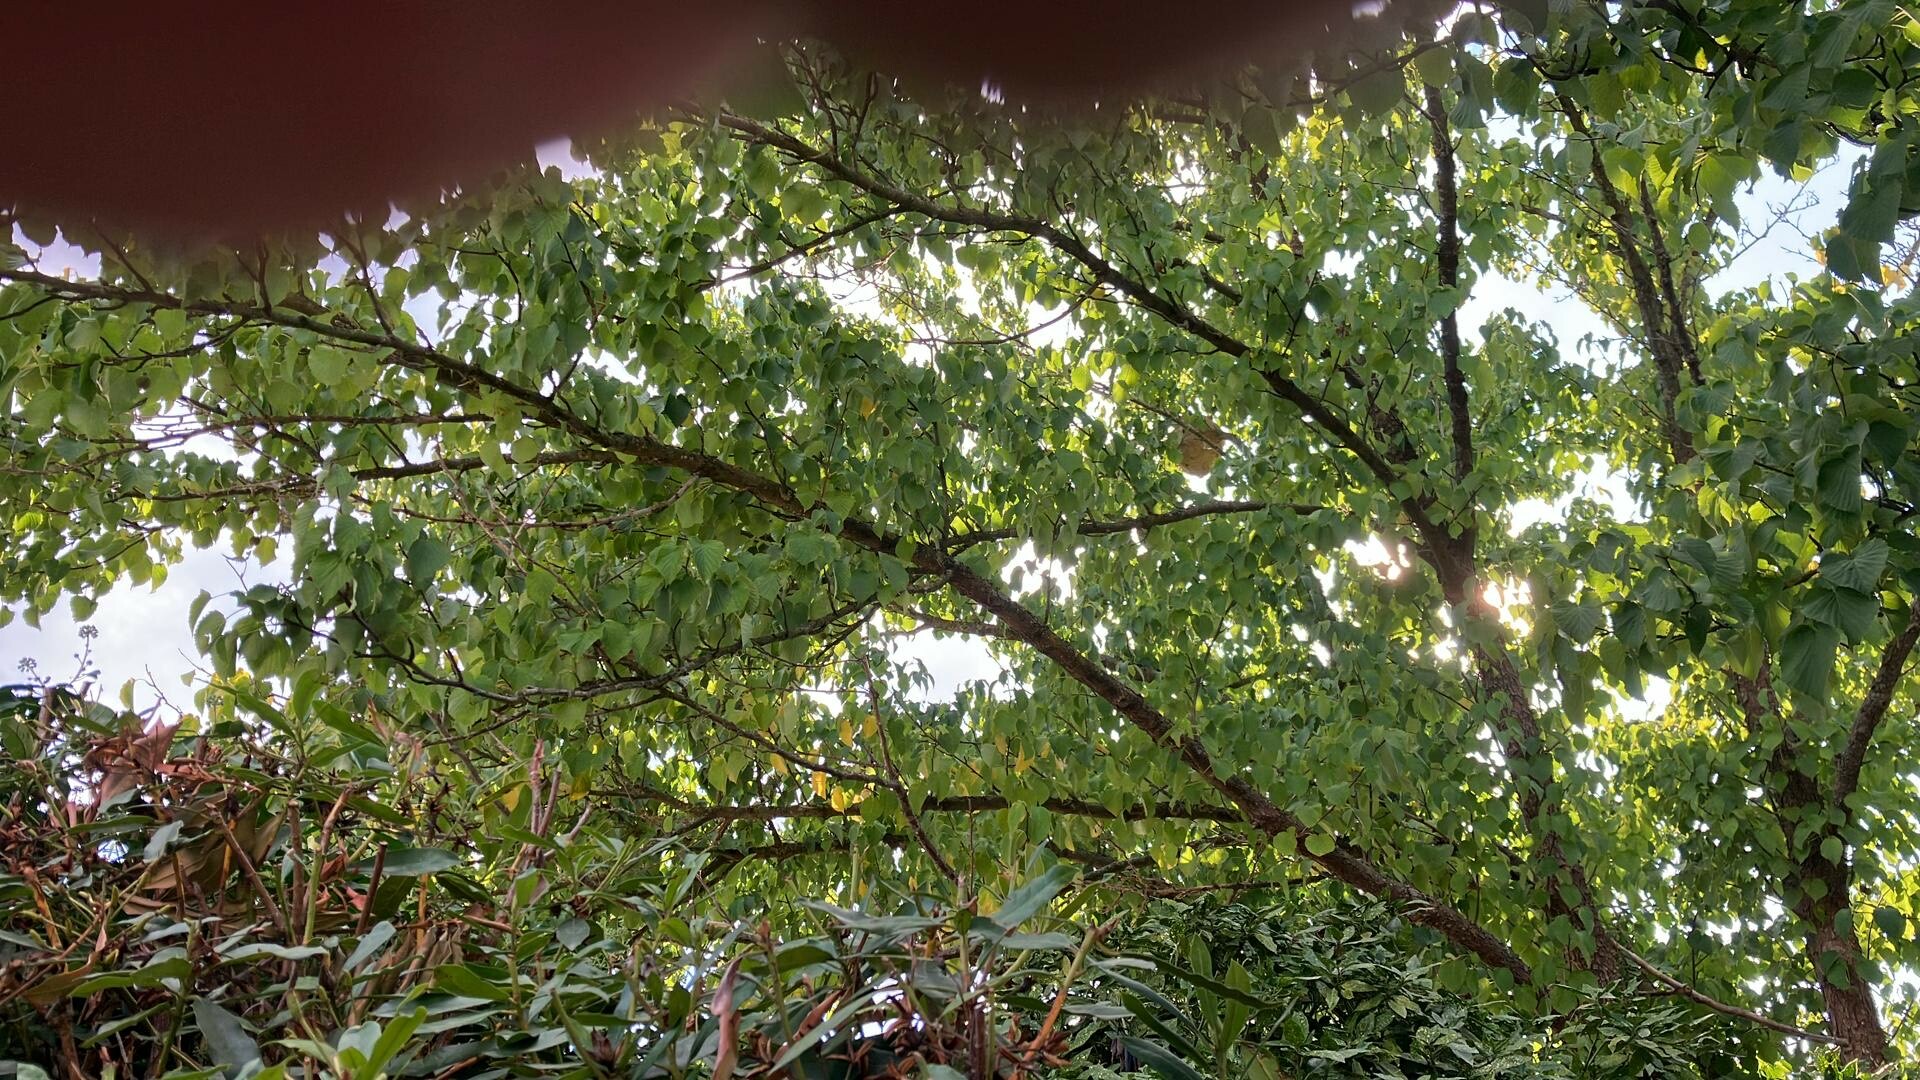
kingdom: Animalia
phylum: Arthropoda
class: Insecta
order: Hymenoptera
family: Vespidae
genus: Vespa
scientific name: Vespa velutina
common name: Asian hornet
